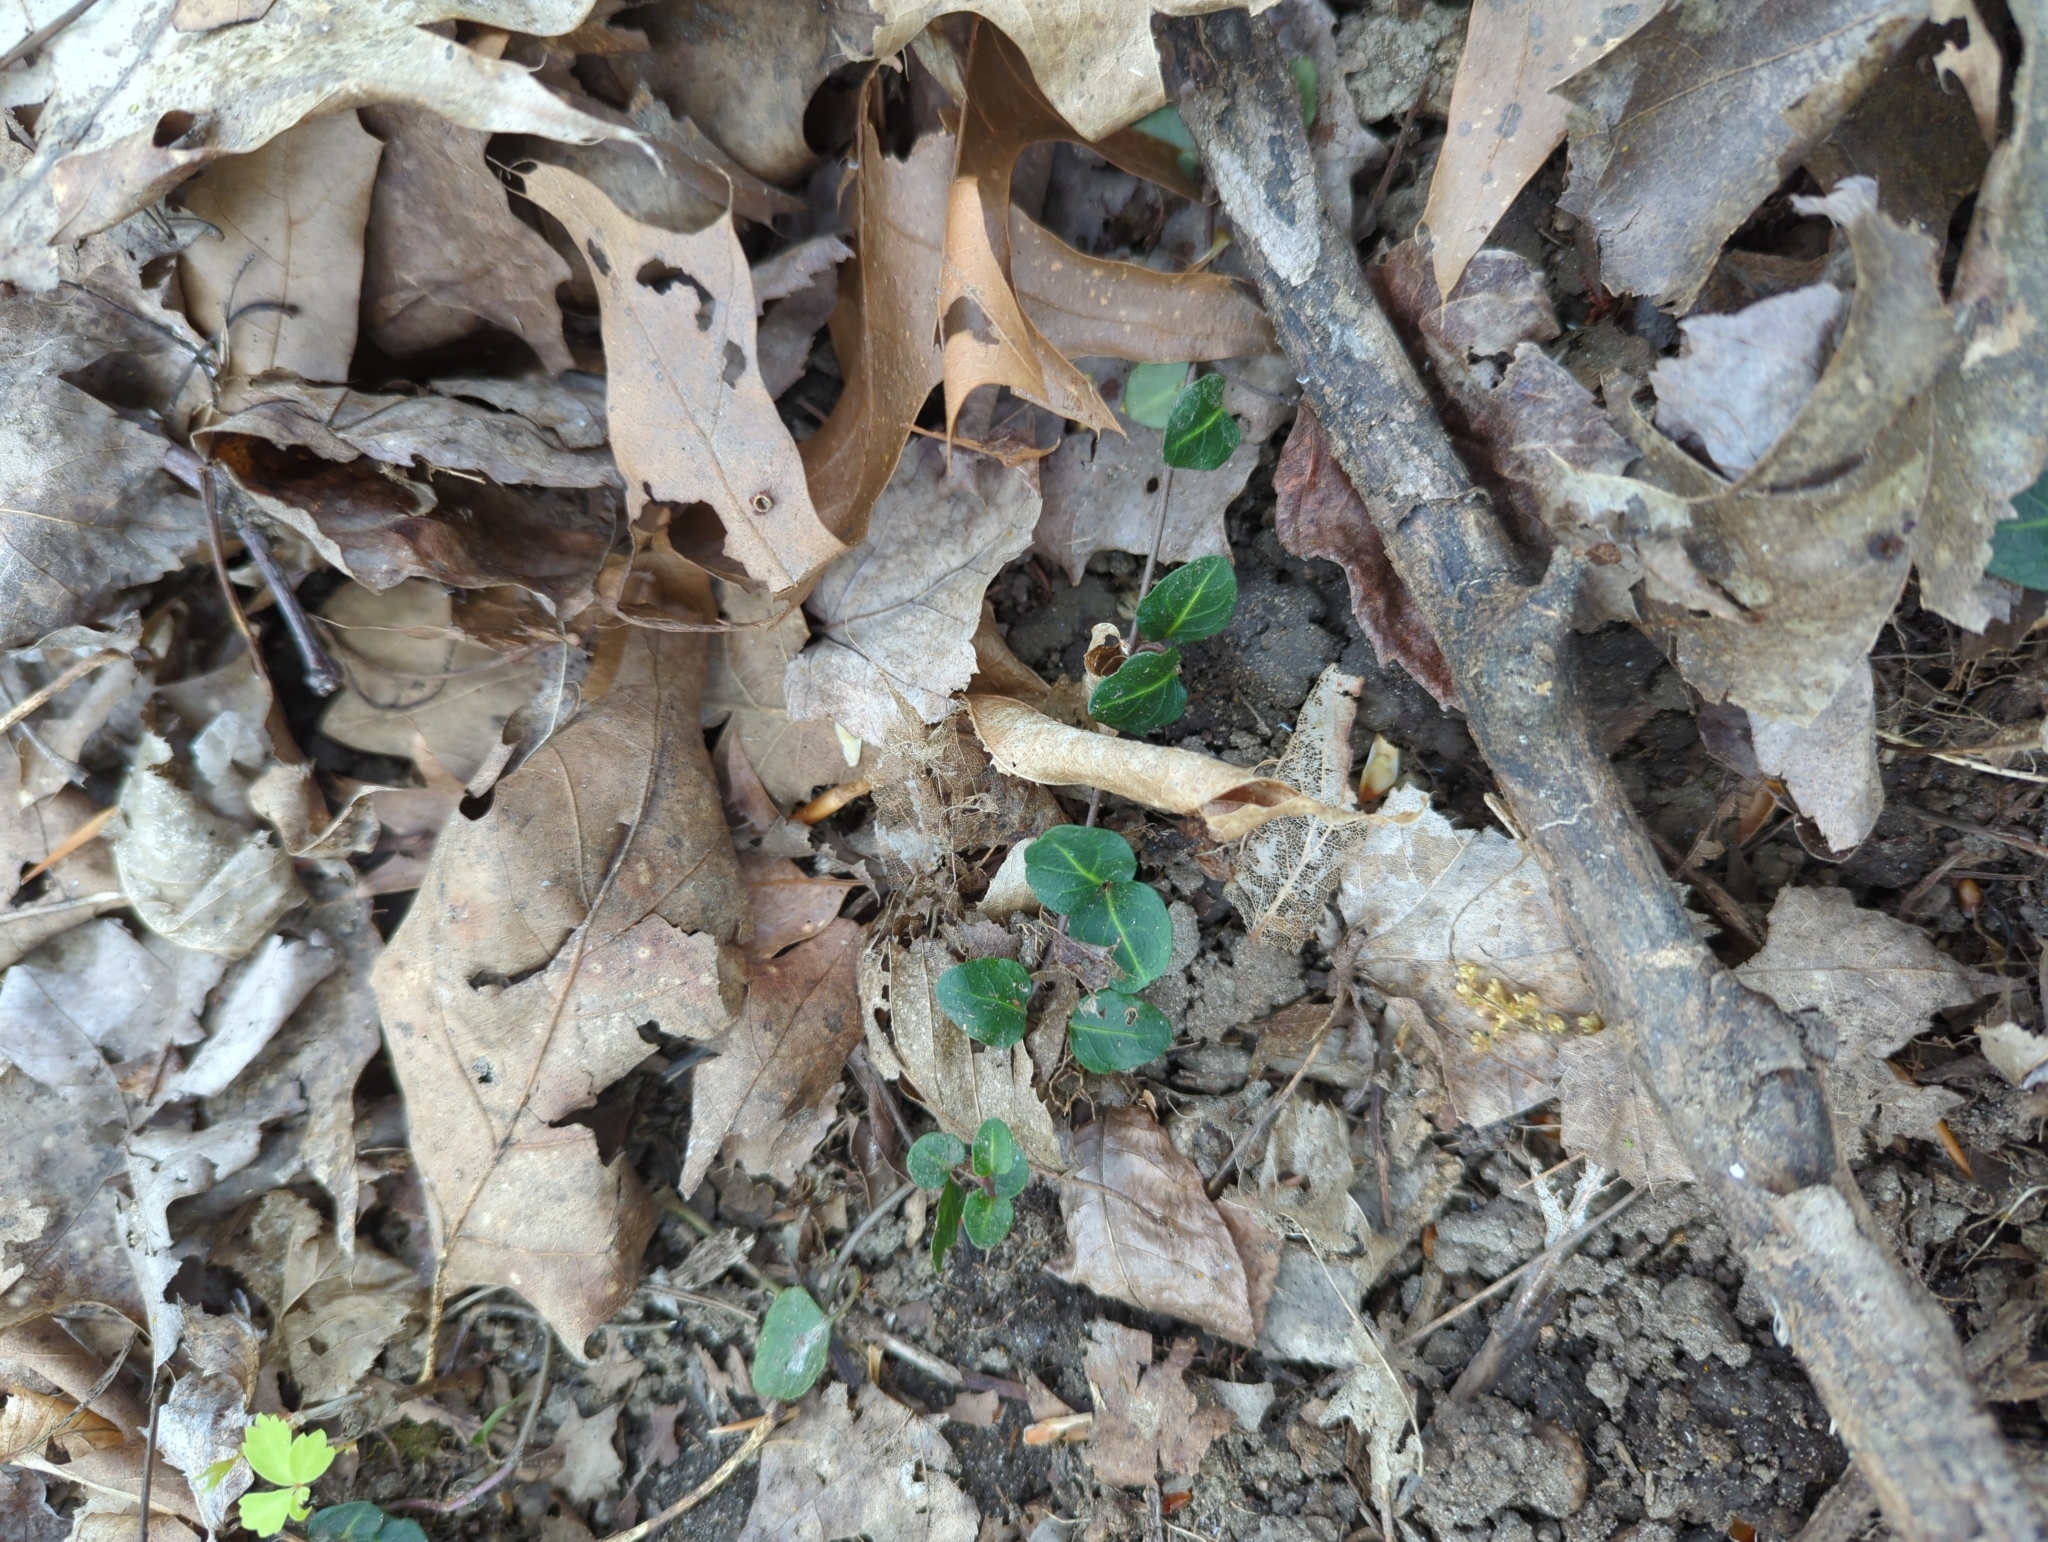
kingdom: Plantae
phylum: Tracheophyta
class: Magnoliopsida
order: Gentianales
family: Rubiaceae
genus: Mitchella
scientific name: Mitchella repens
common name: Partridge-berry
